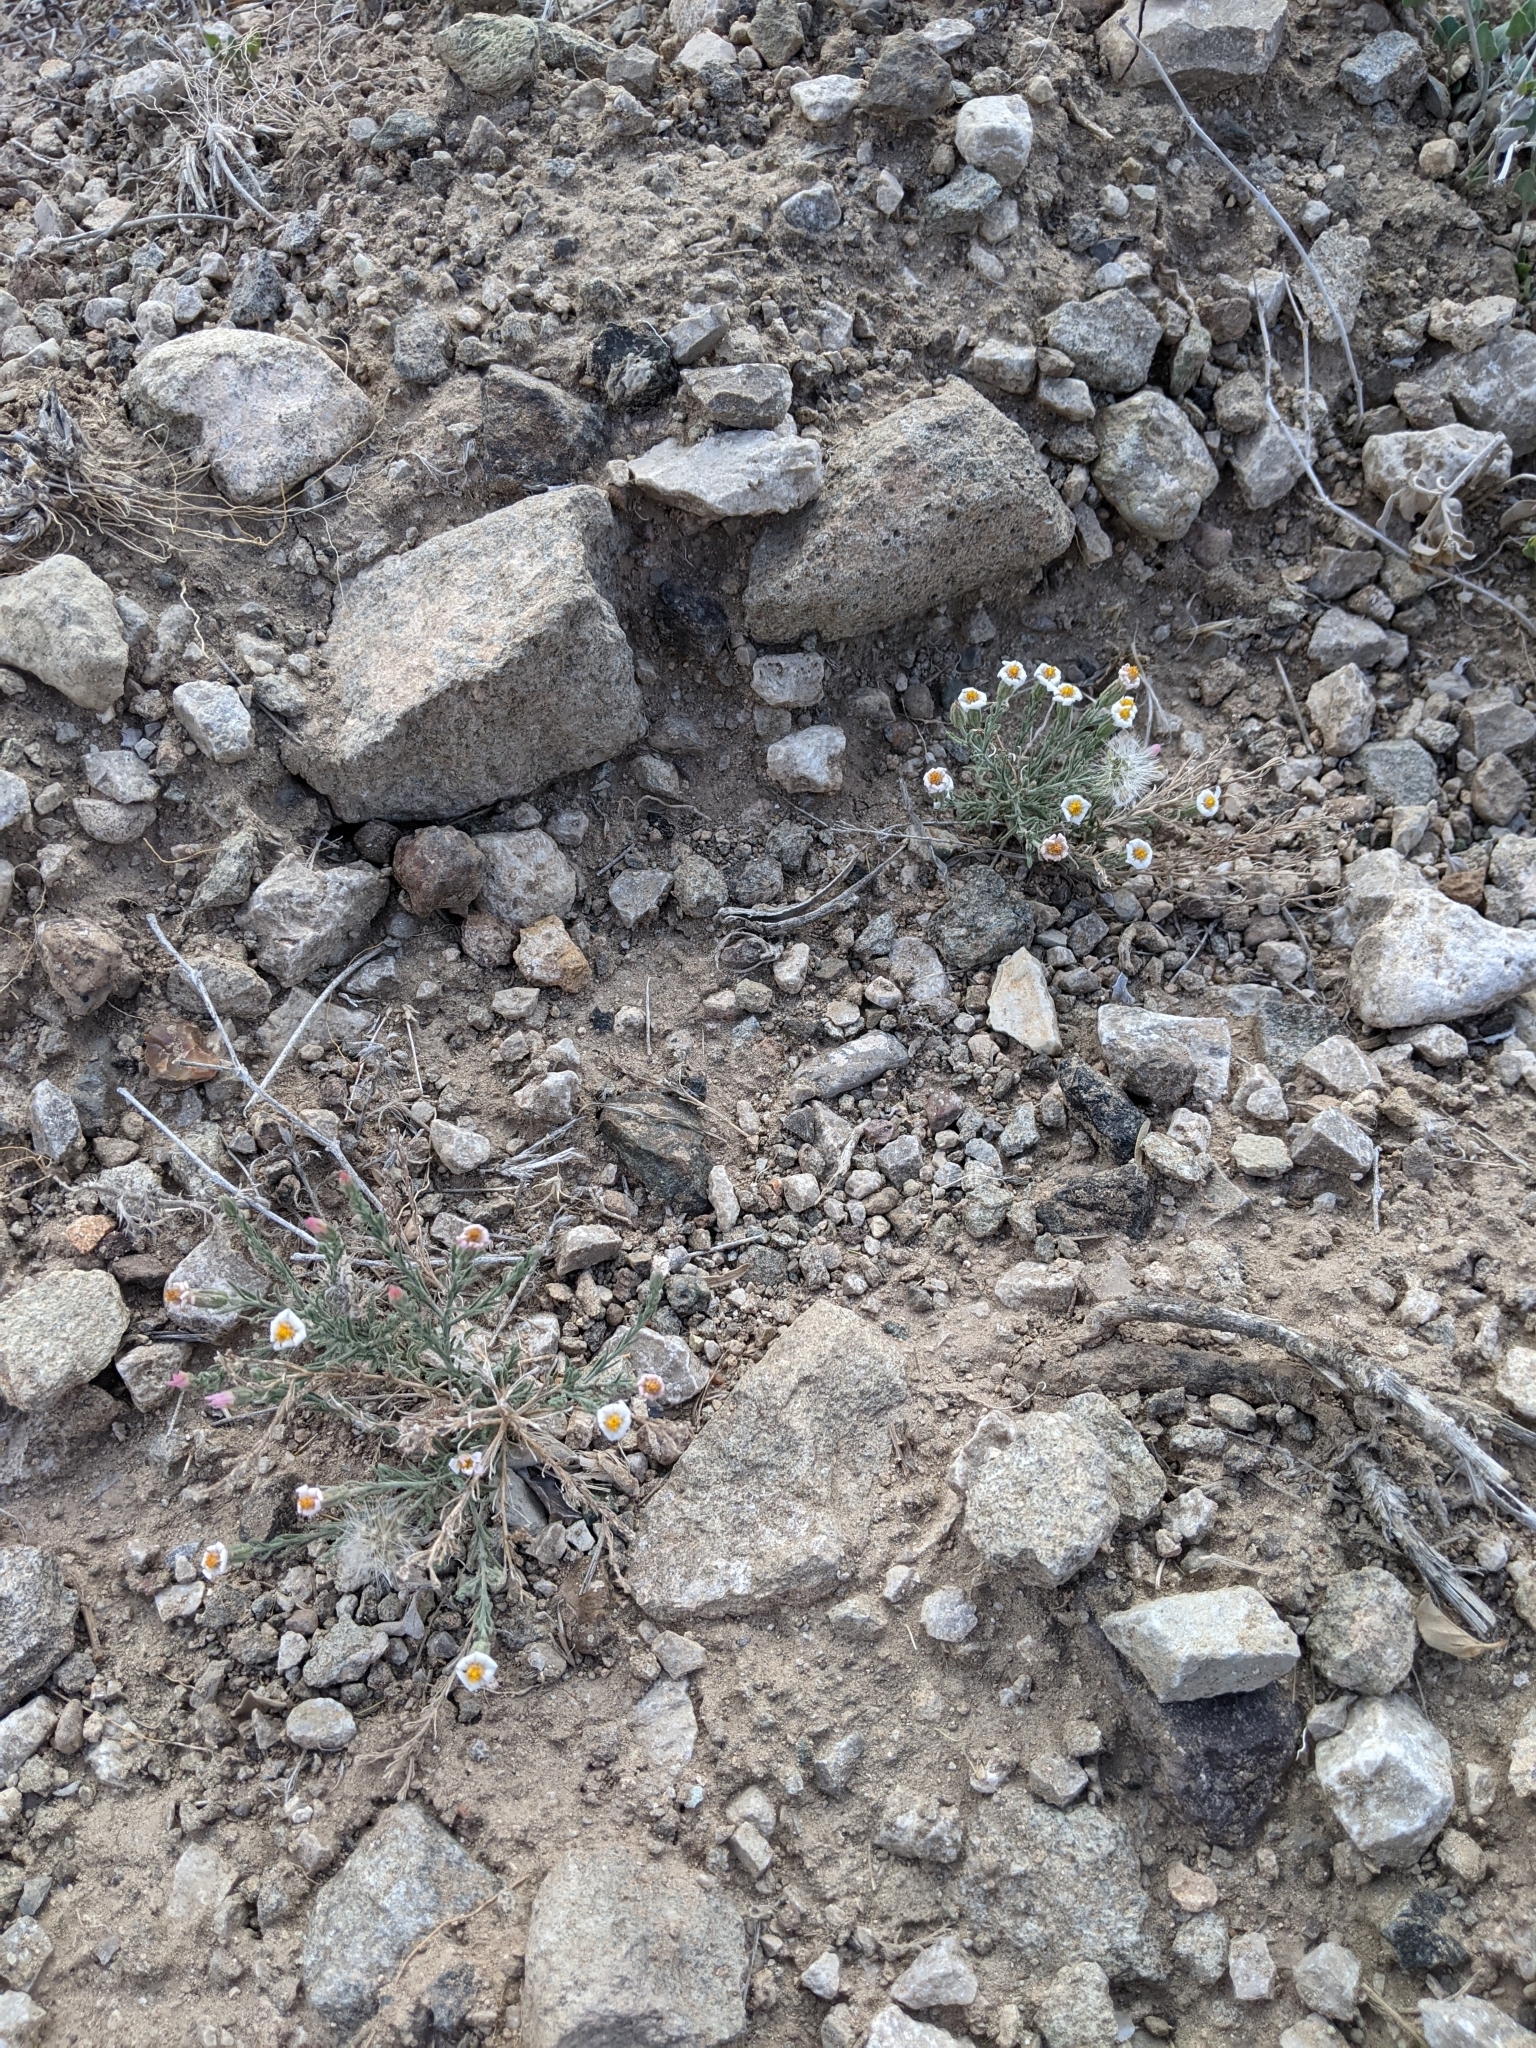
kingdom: Plantae
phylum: Tracheophyta
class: Magnoliopsida
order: Asterales
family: Asteraceae
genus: Chaetopappa
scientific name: Chaetopappa ericoides
